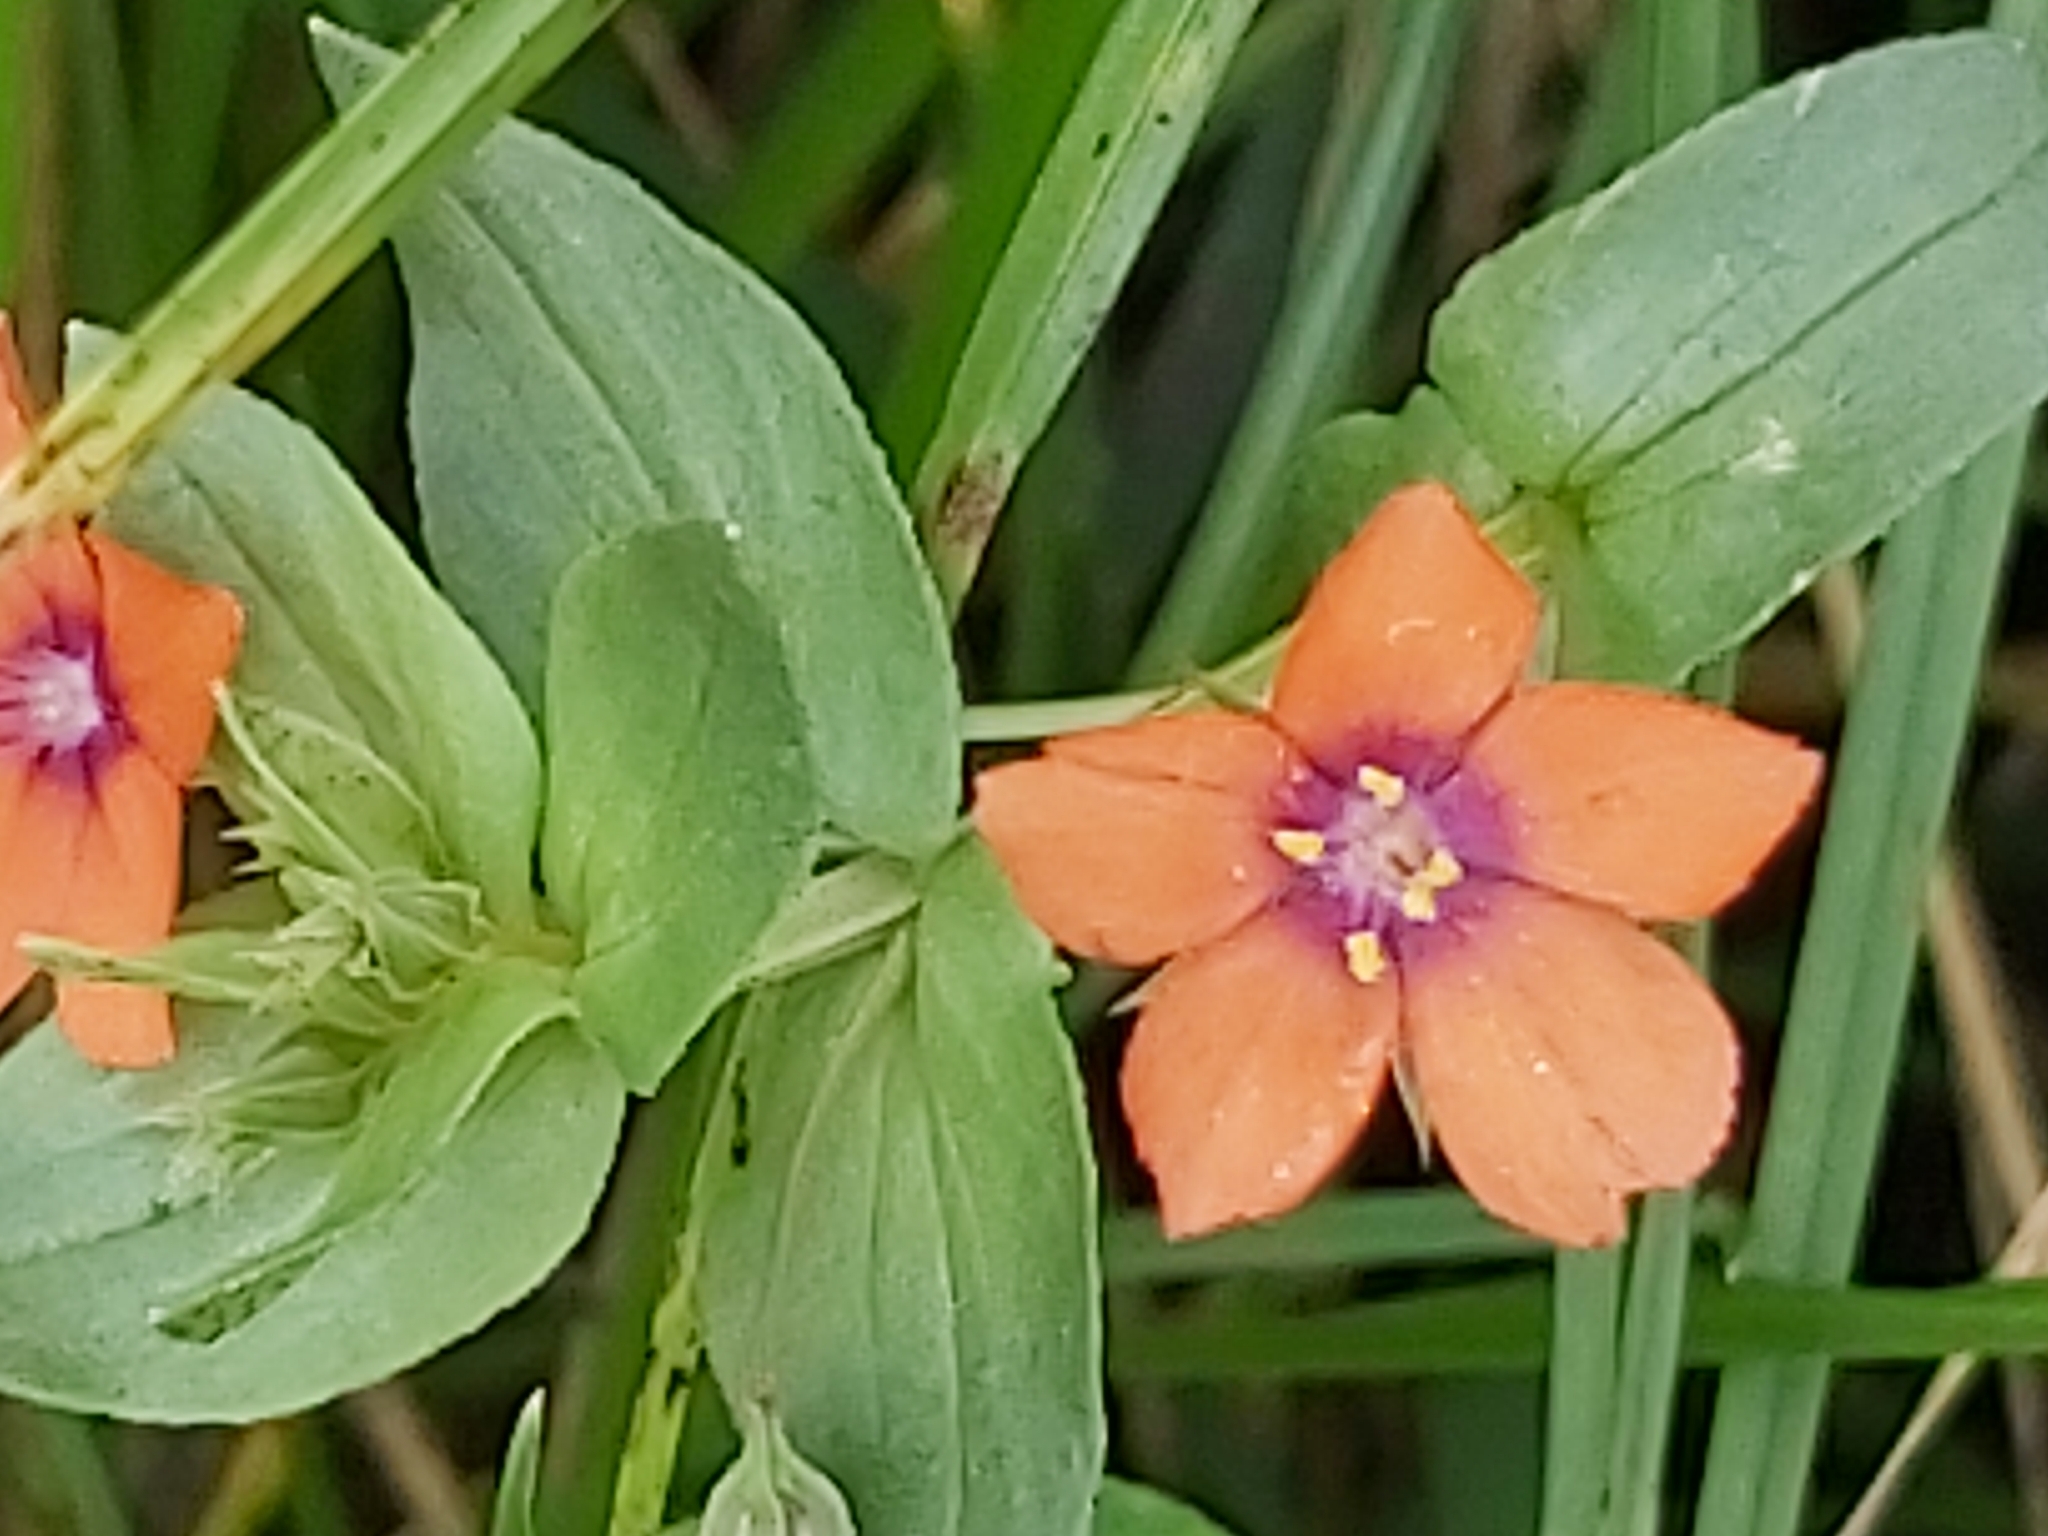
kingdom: Plantae
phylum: Tracheophyta
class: Magnoliopsida
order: Ericales
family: Primulaceae
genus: Lysimachia
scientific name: Lysimachia arvensis
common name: Scarlet pimpernel
